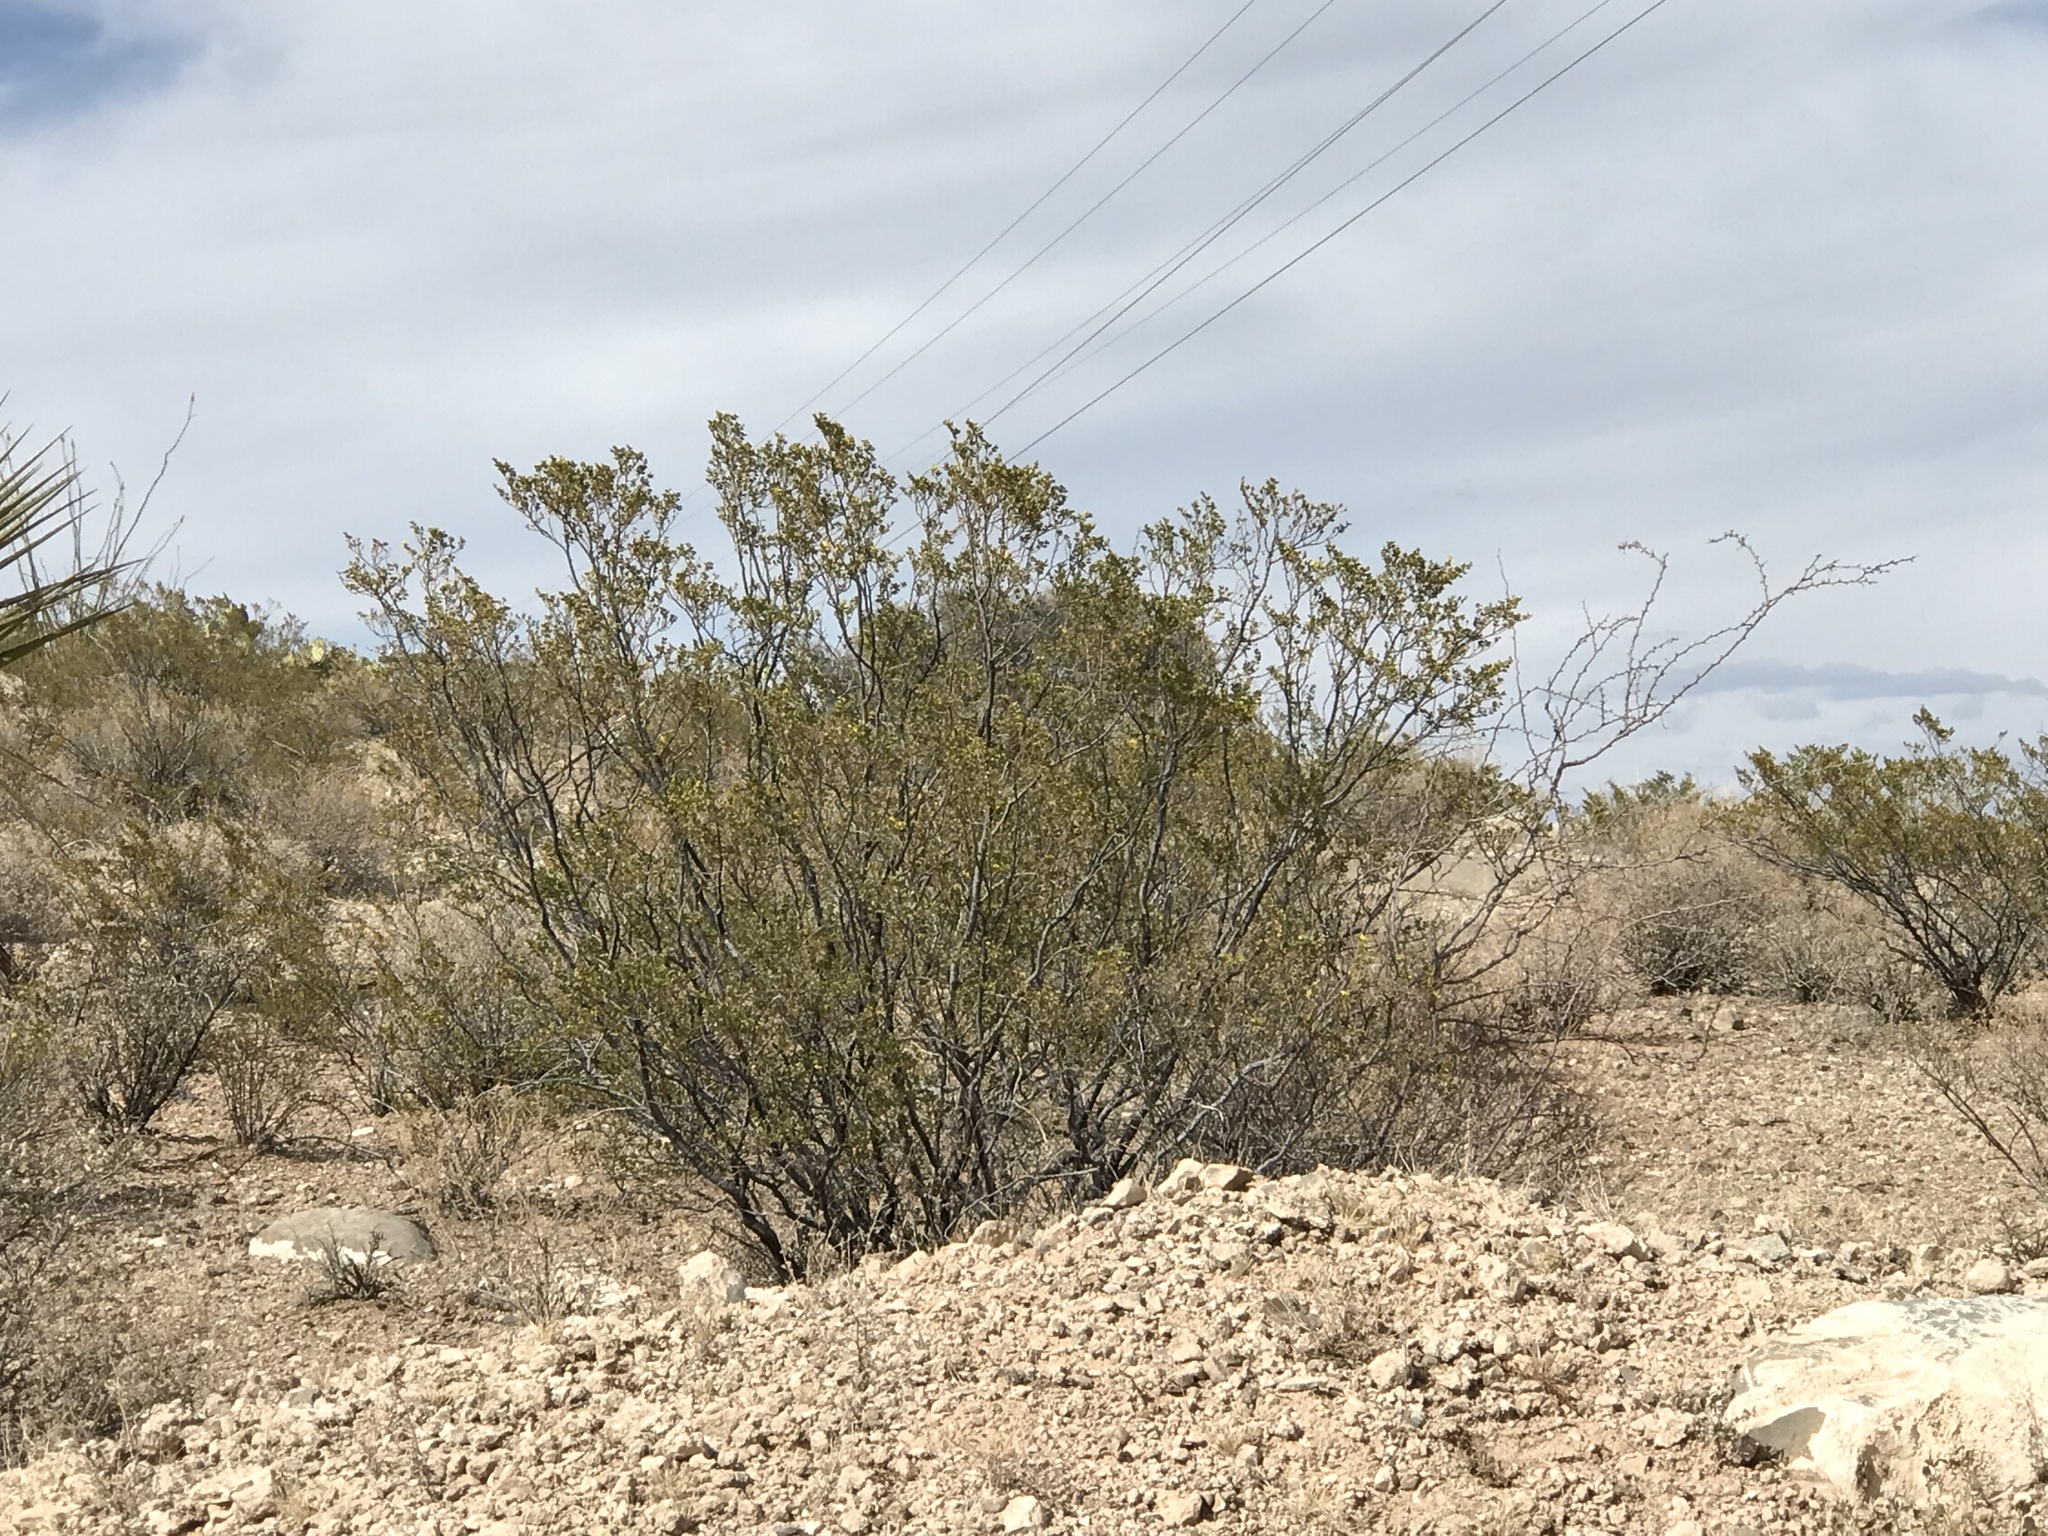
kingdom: Plantae
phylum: Tracheophyta
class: Magnoliopsida
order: Zygophyllales
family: Zygophyllaceae
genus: Larrea
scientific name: Larrea tridentata
